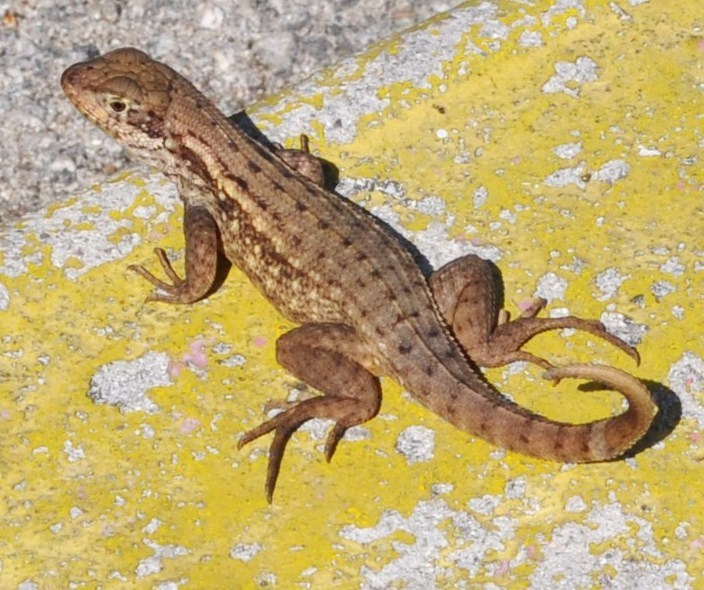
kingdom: Animalia
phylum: Chordata
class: Squamata
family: Leiocephalidae
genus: Leiocephalus
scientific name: Leiocephalus carinatus
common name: Northern curly-tailed lizard
